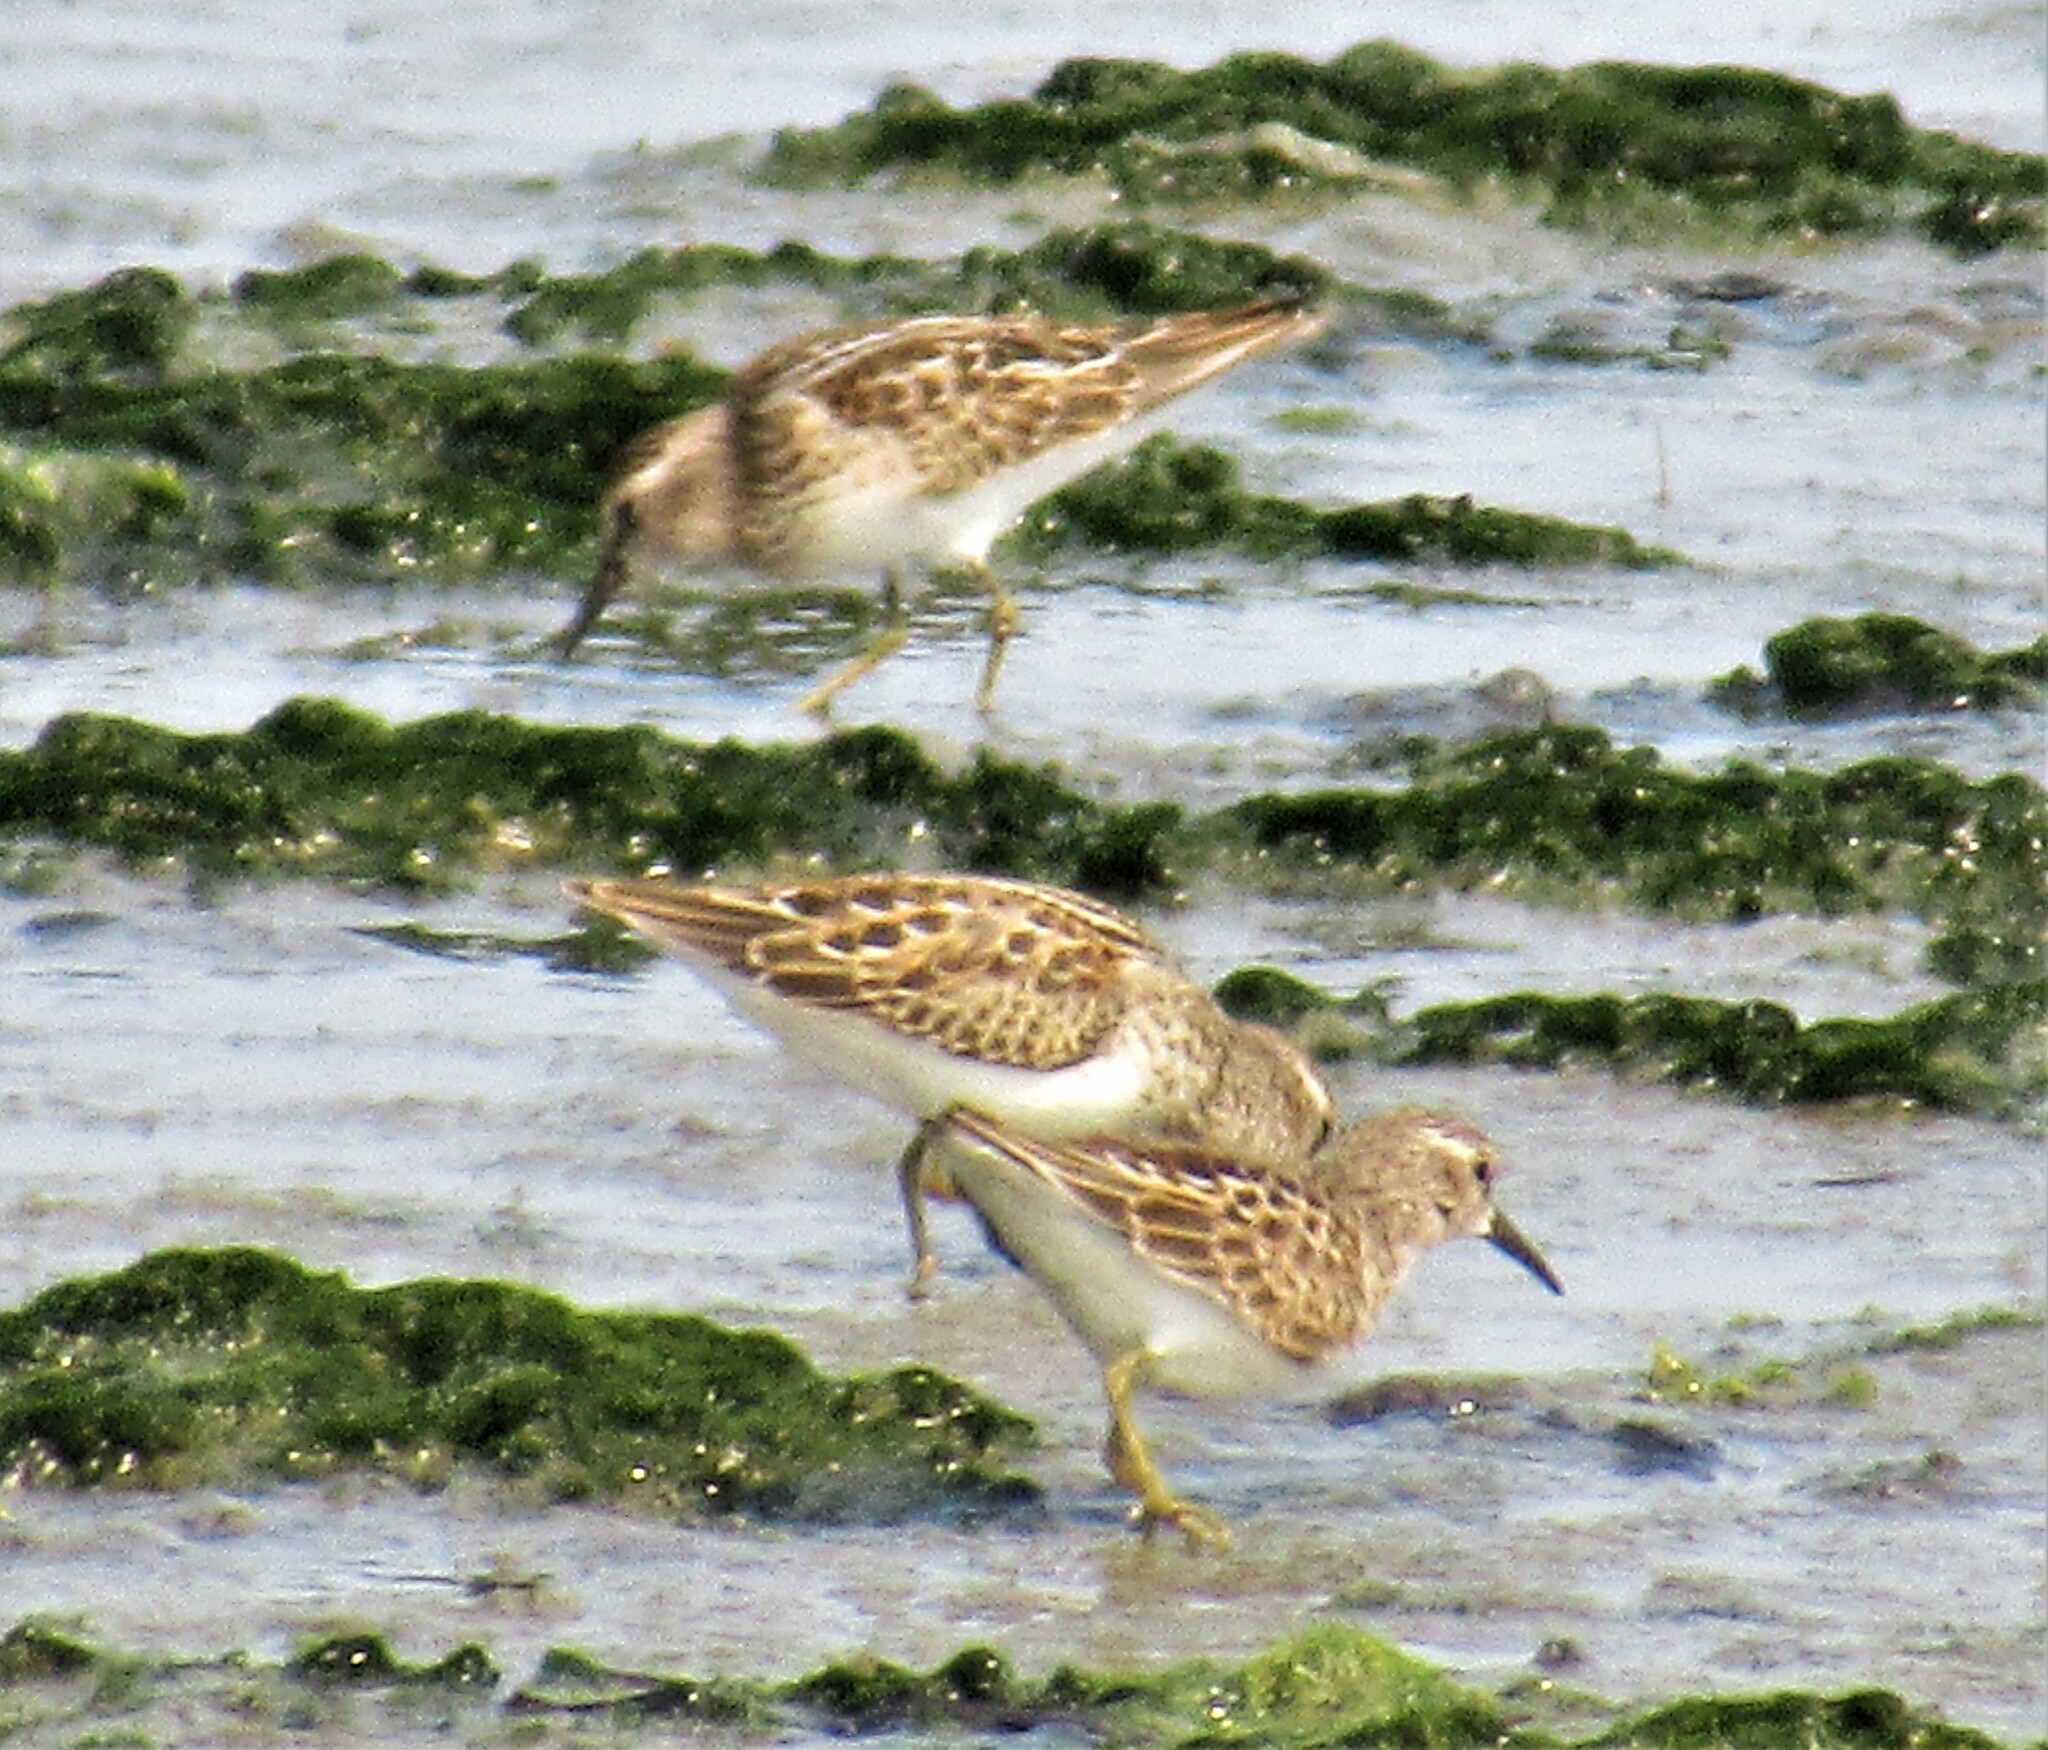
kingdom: Animalia
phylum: Chordata
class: Aves
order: Charadriiformes
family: Scolopacidae
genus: Calidris
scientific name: Calidris minutilla
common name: Least sandpiper
